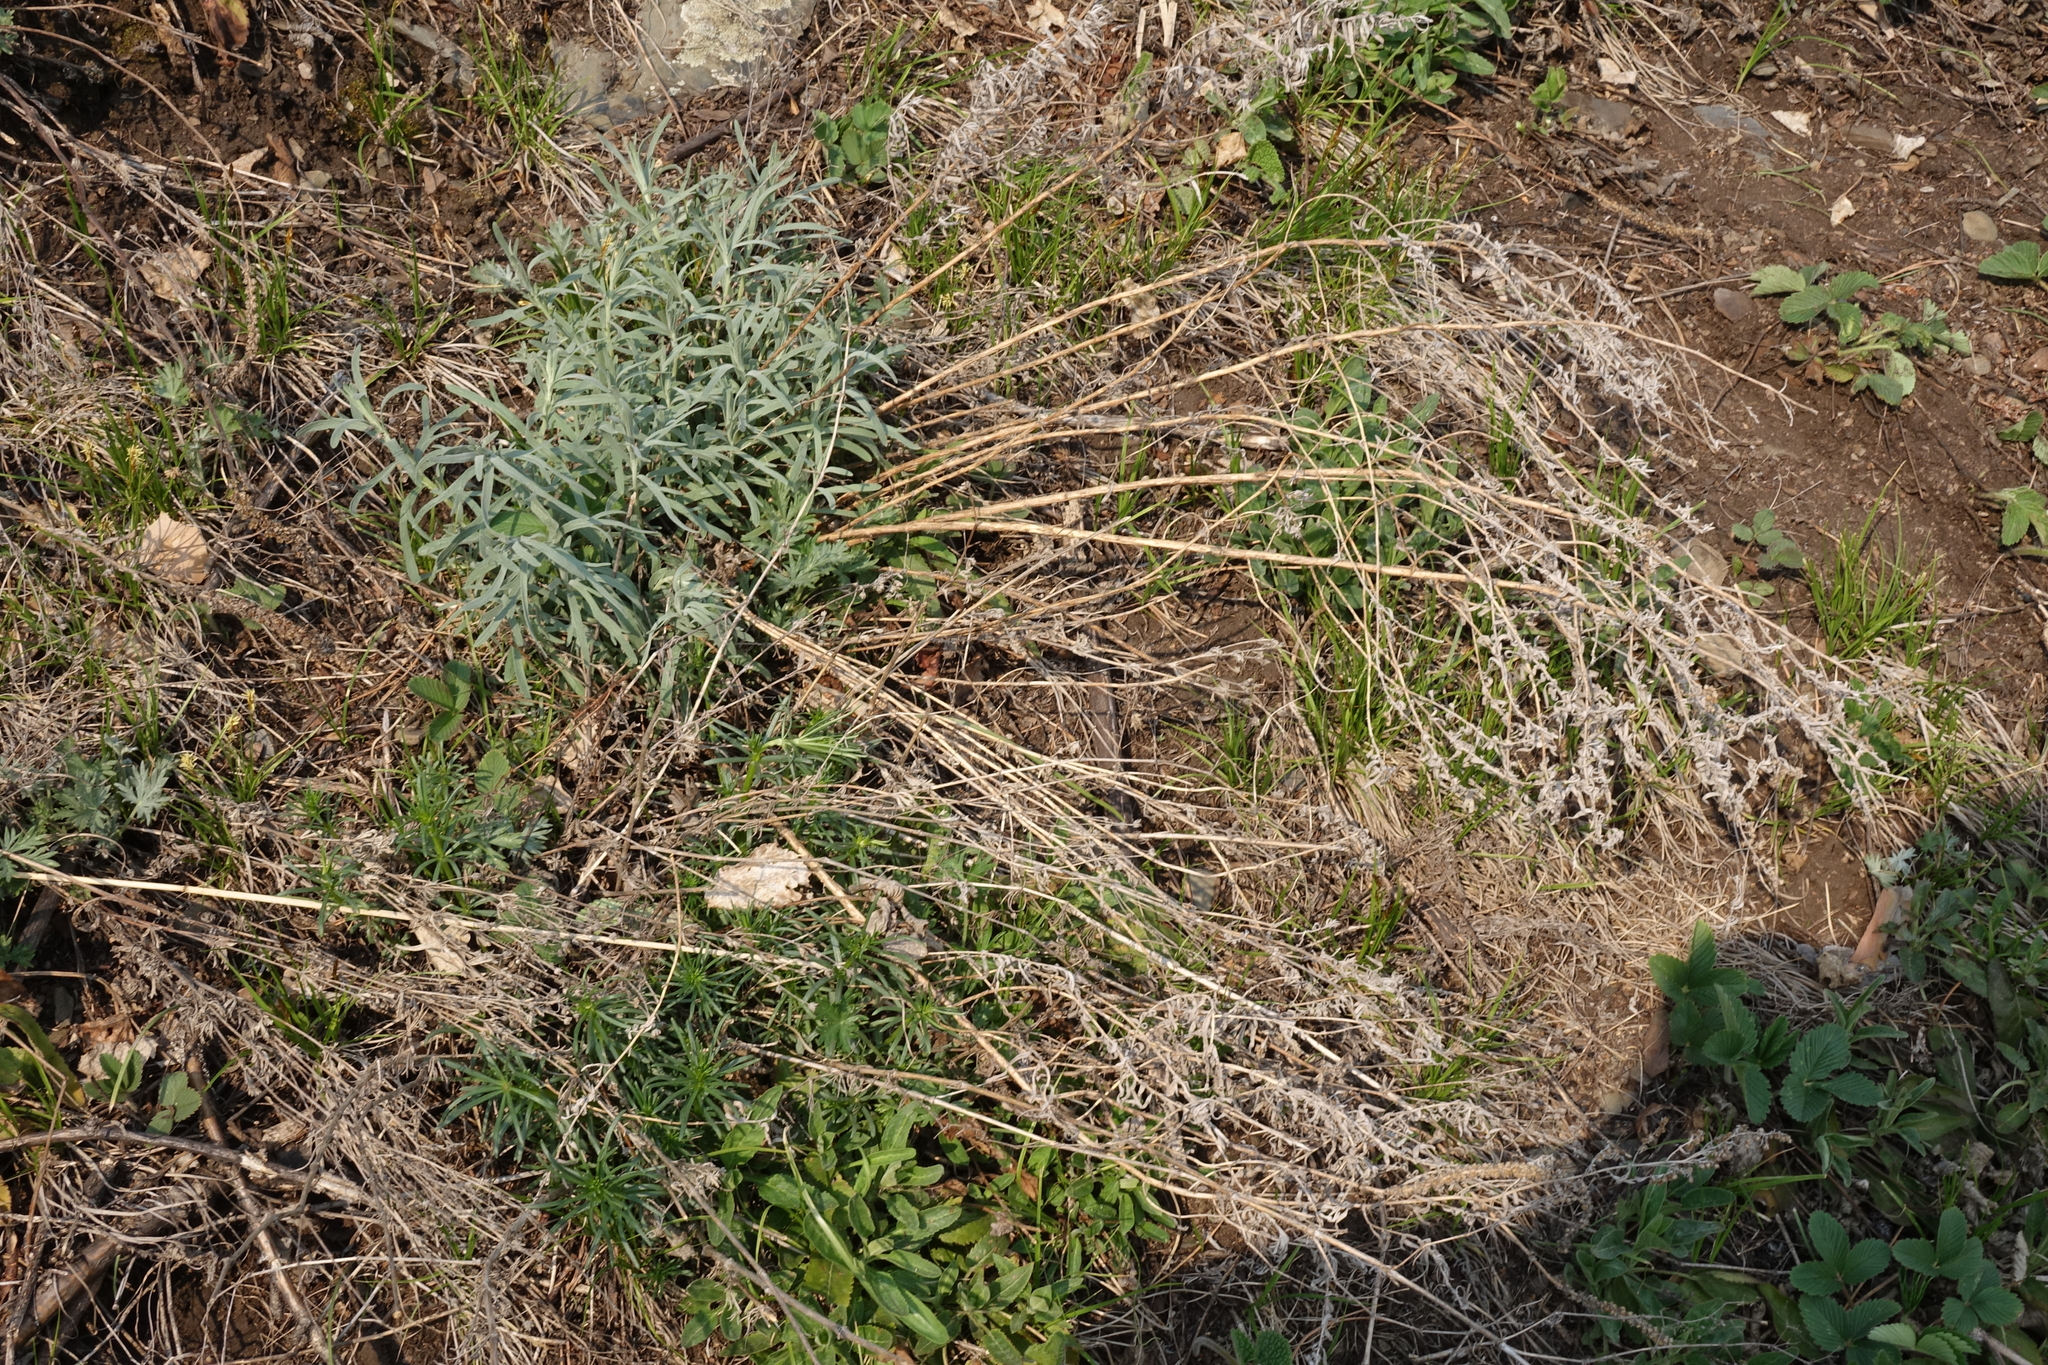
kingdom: Plantae
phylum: Tracheophyta
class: Magnoliopsida
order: Asterales
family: Asteraceae
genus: Artemisia
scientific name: Artemisia glauca
